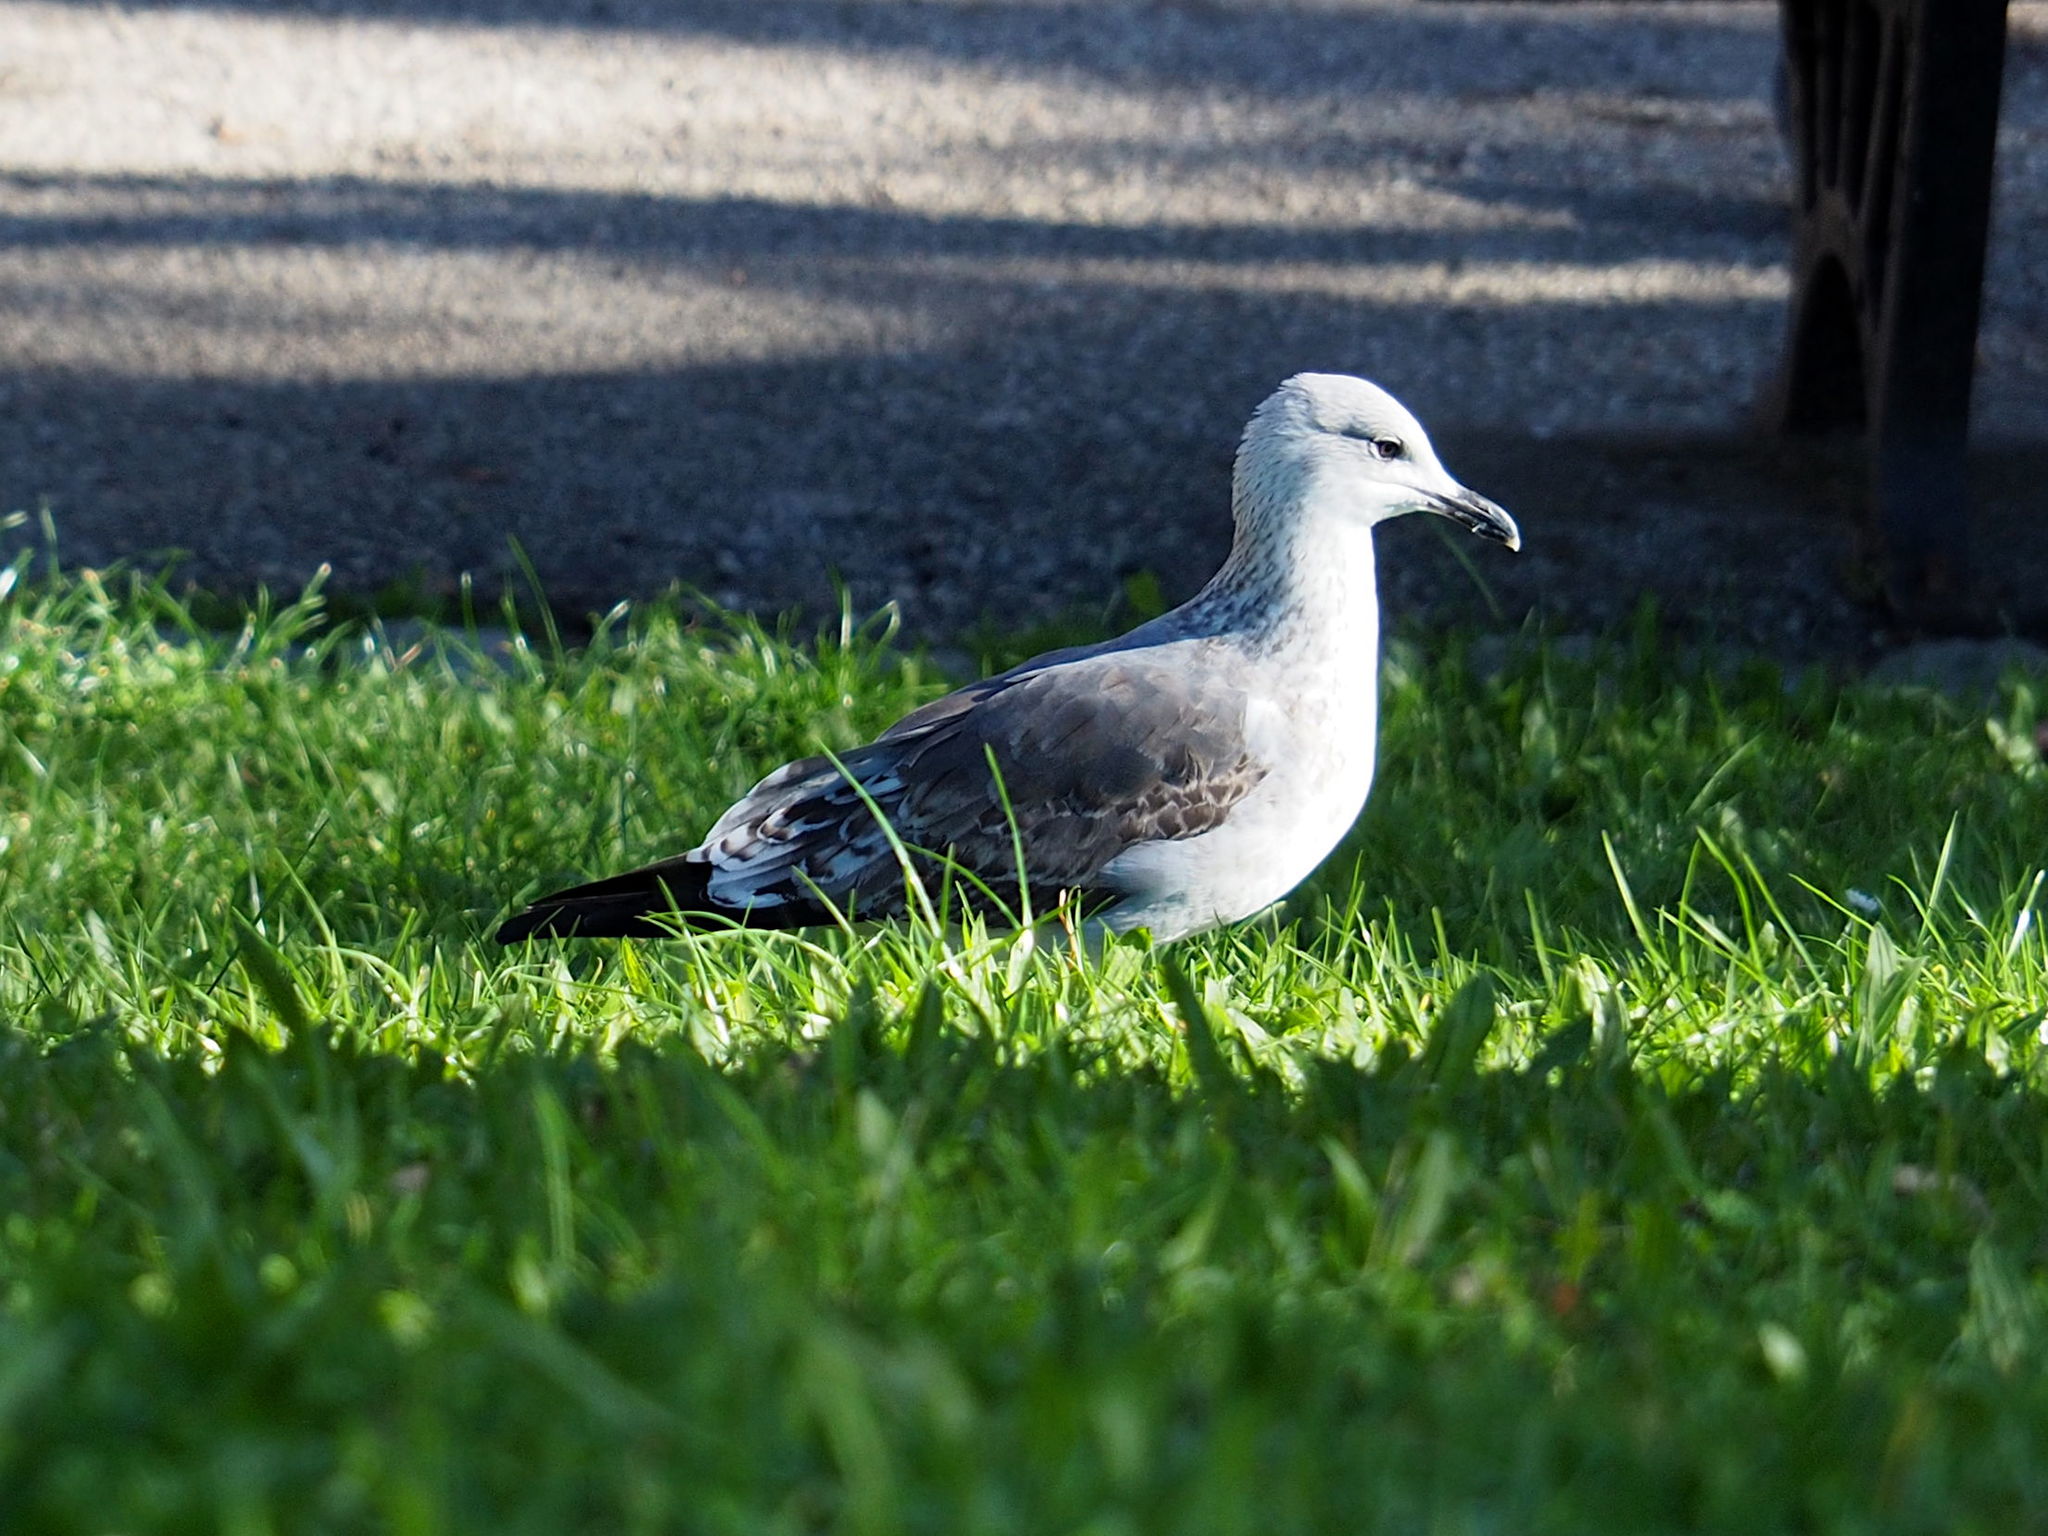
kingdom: Animalia
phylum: Chordata
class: Aves
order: Charadriiformes
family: Laridae
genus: Larus
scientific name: Larus fuscus
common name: Lesser black-backed gull
